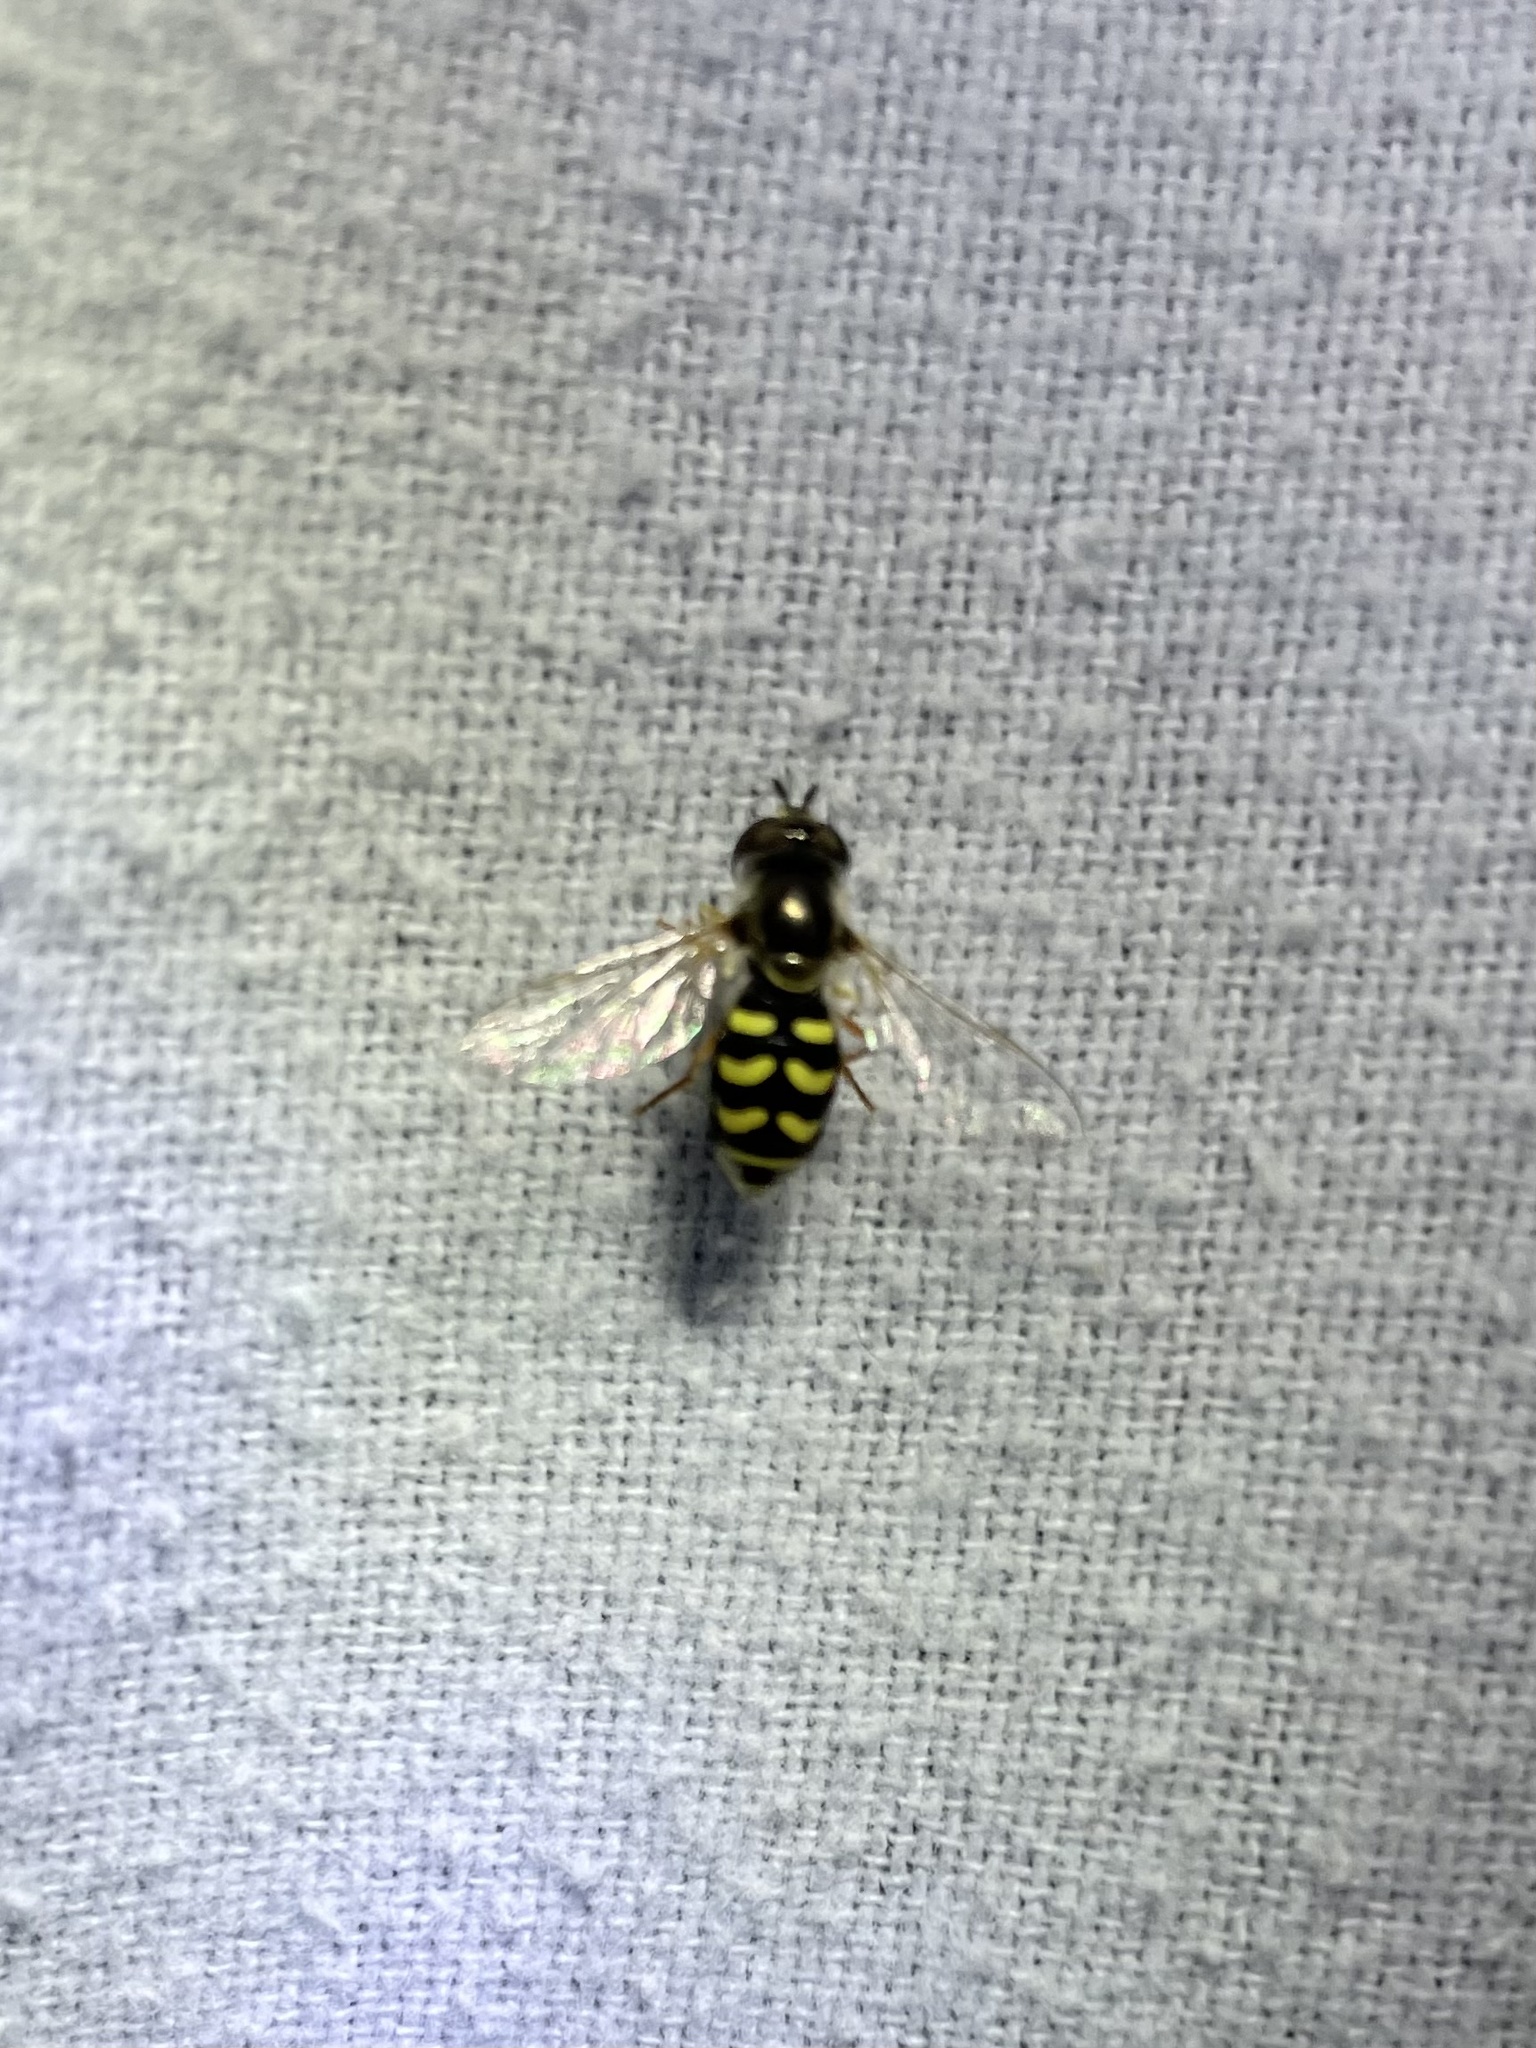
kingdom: Animalia
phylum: Arthropoda
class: Insecta
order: Diptera
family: Syrphidae
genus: Eupeodes
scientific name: Eupeodes volucris
